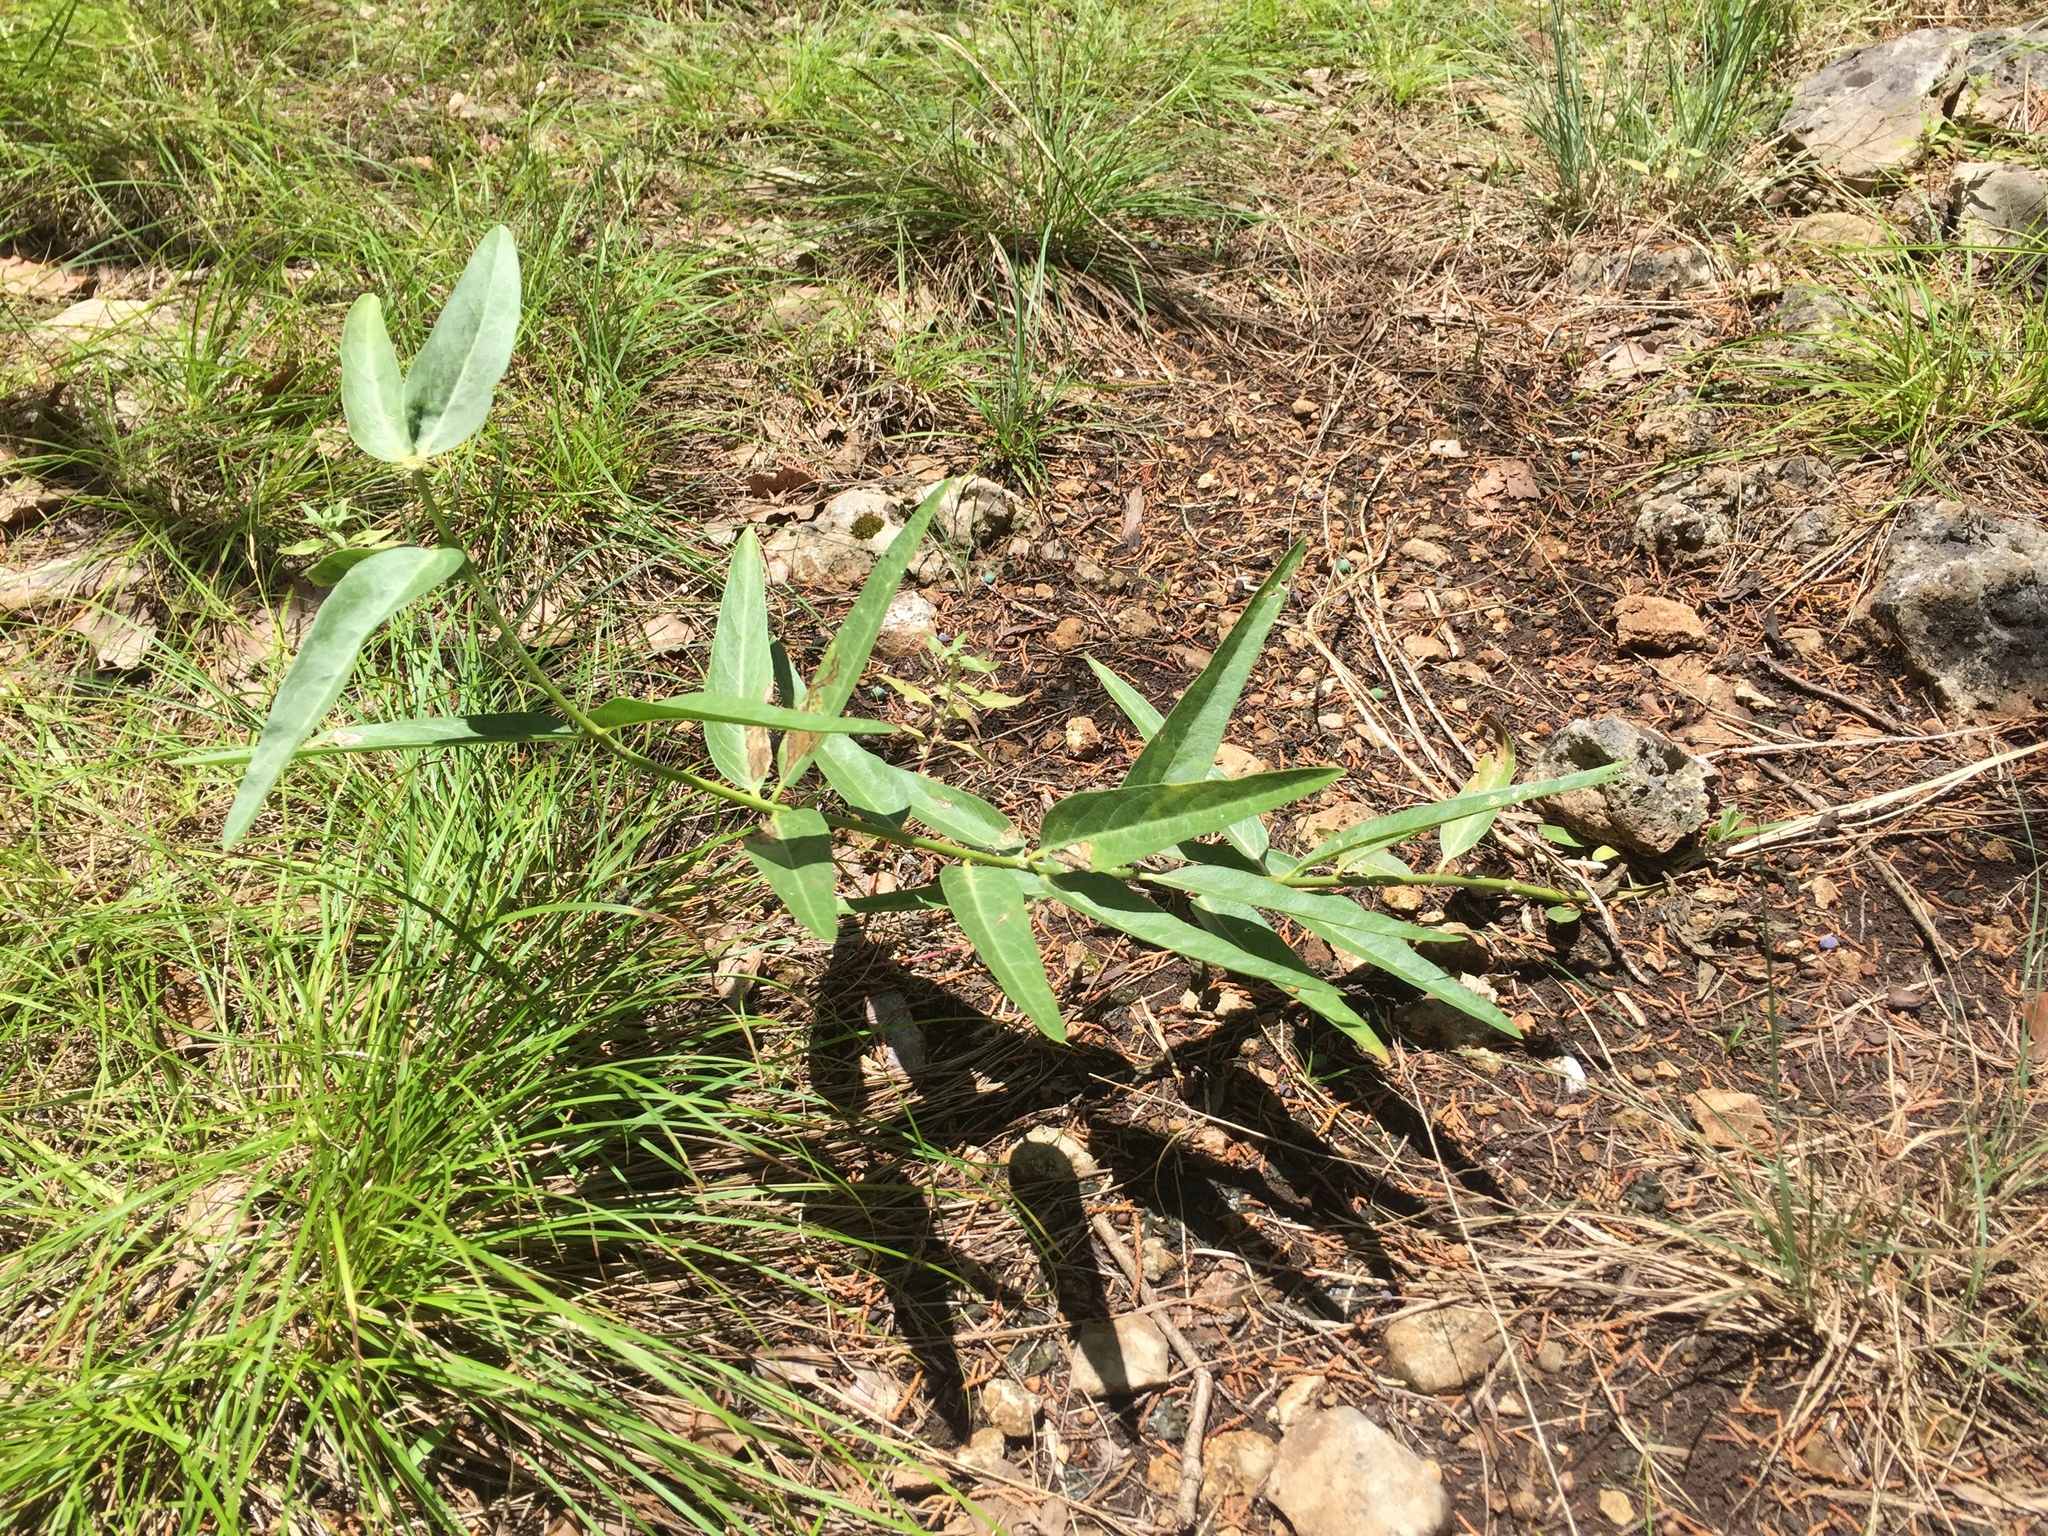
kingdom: Plantae
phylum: Tracheophyta
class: Magnoliopsida
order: Gentianales
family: Apocynaceae
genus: Asclepias
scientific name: Asclepias asperula
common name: Antelope horns
